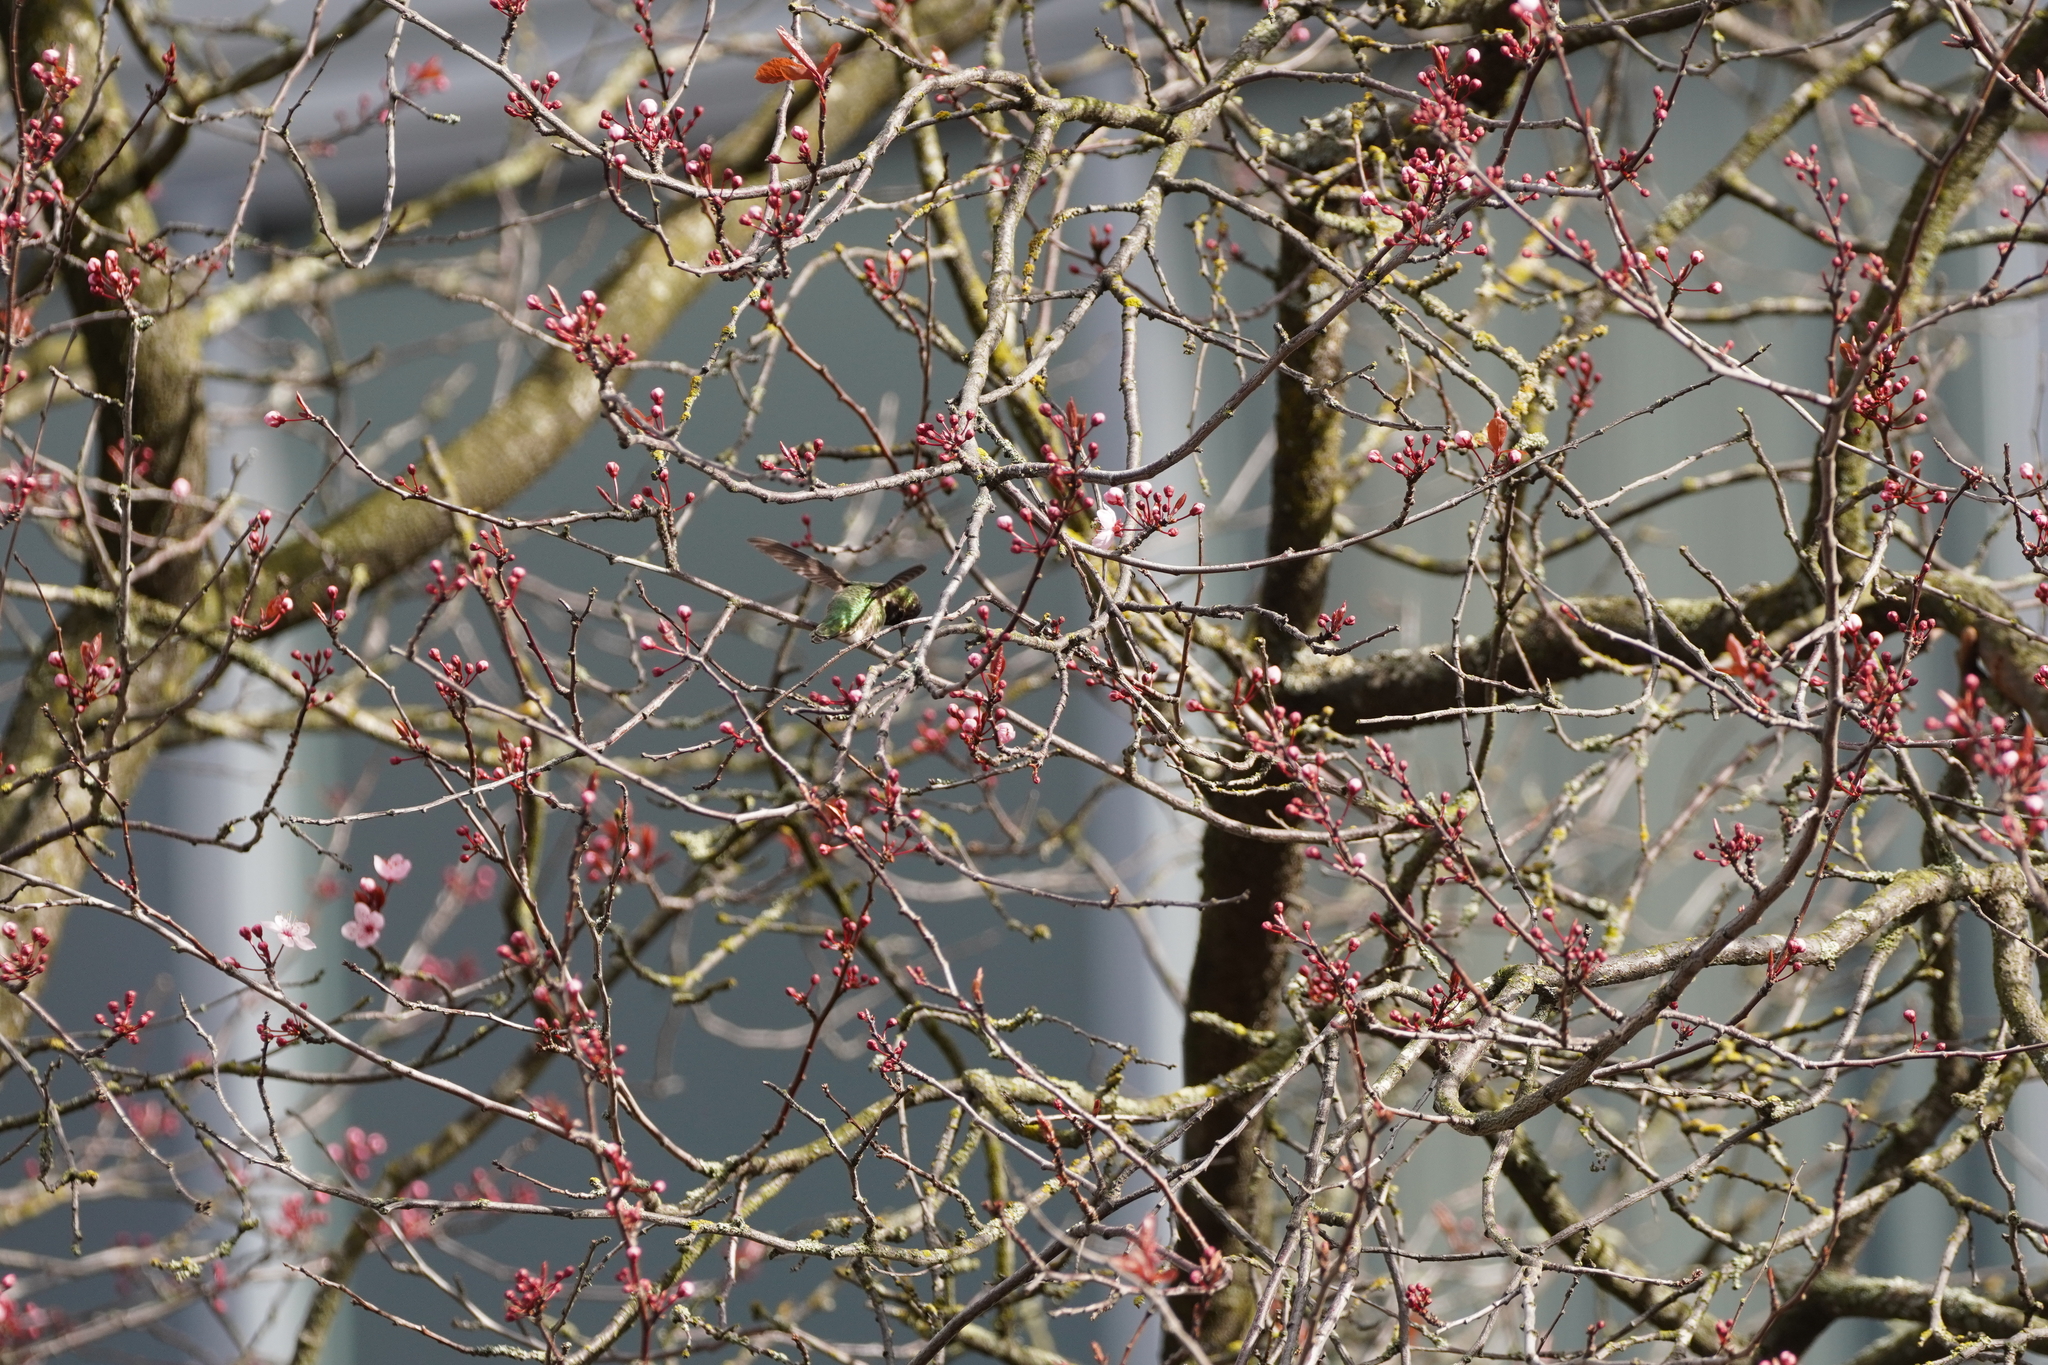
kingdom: Animalia
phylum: Chordata
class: Aves
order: Apodiformes
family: Trochilidae
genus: Calypte
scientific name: Calypte anna
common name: Anna's hummingbird
